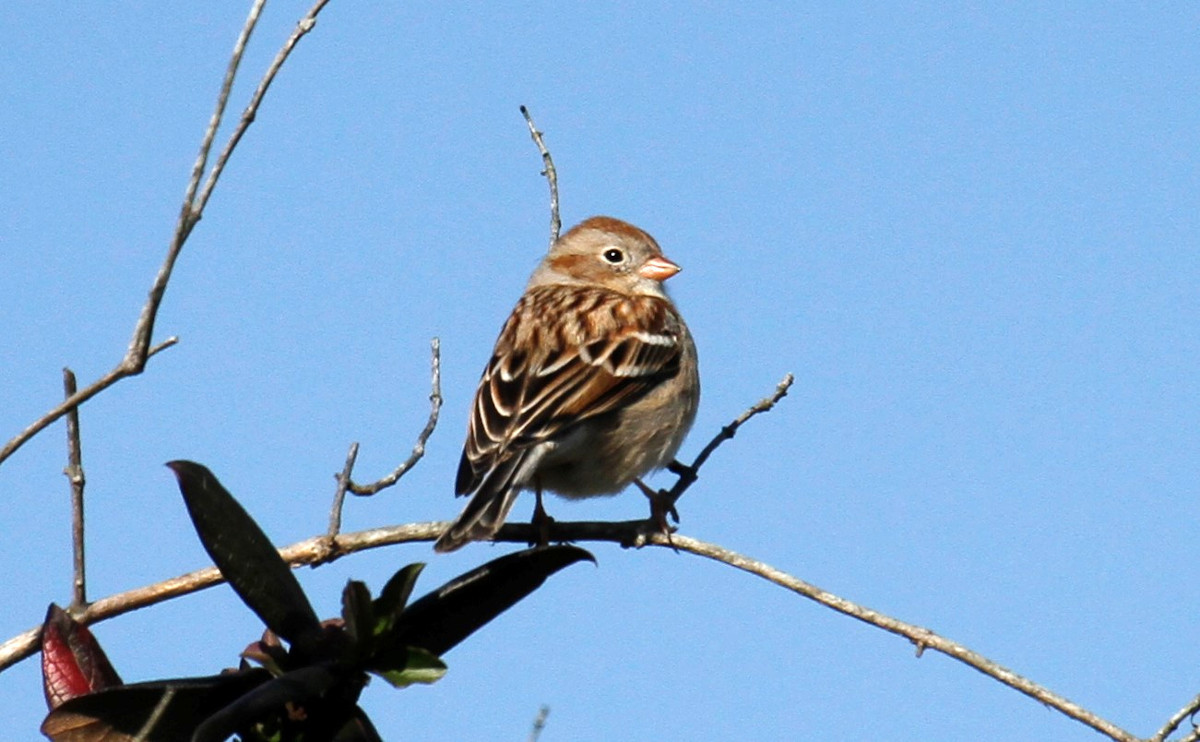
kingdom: Animalia
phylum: Chordata
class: Aves
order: Passeriformes
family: Passerellidae
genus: Spizella
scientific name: Spizella pusilla
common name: Field sparrow
